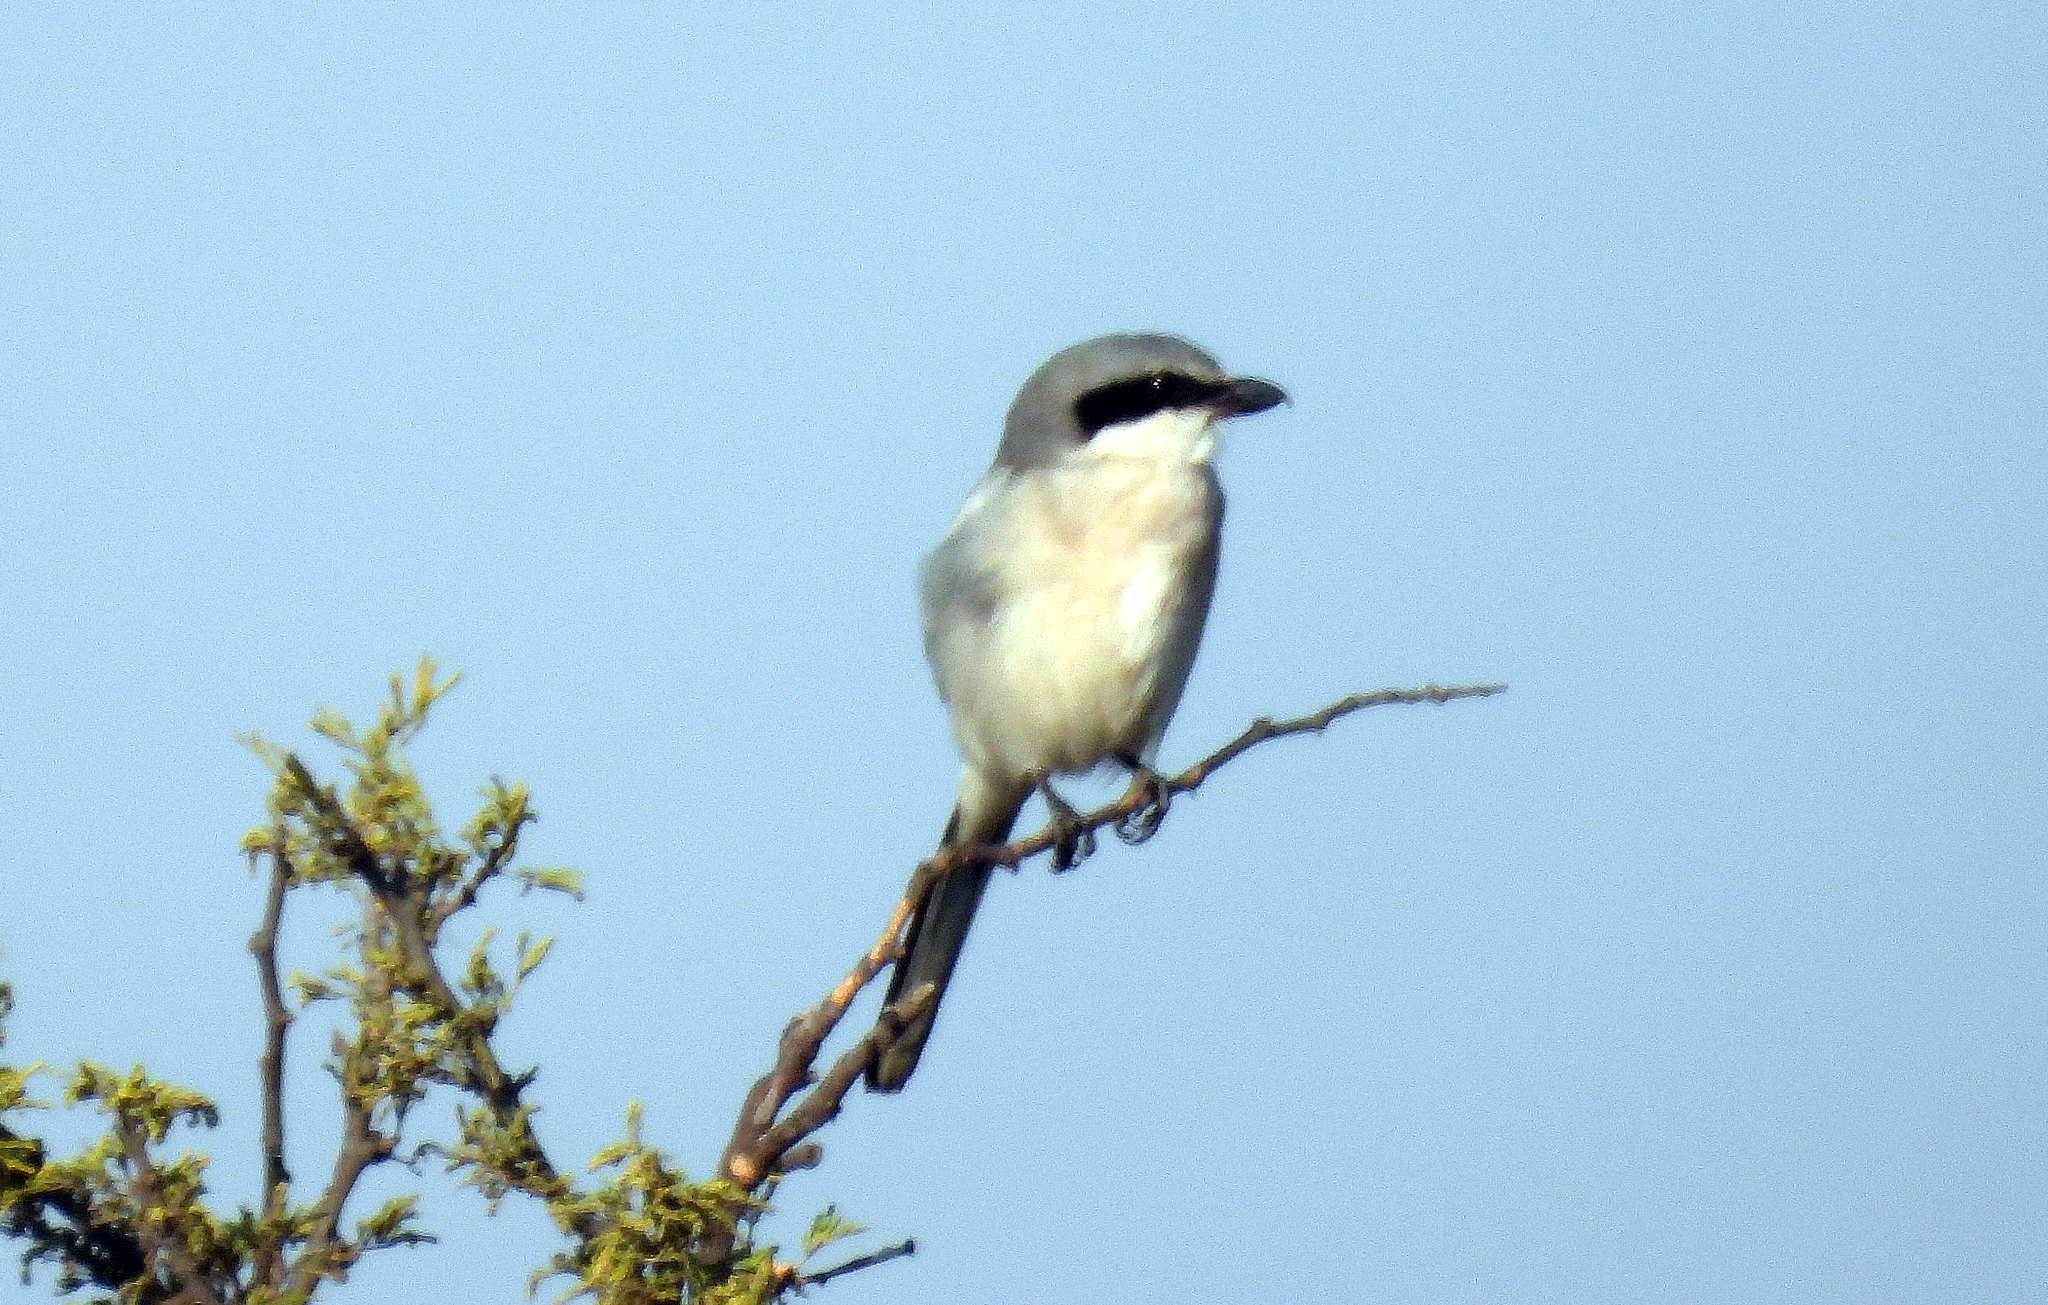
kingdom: Animalia
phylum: Chordata
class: Aves
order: Passeriformes
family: Laniidae
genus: Lanius
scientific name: Lanius ludovicianus
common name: Loggerhead shrike
